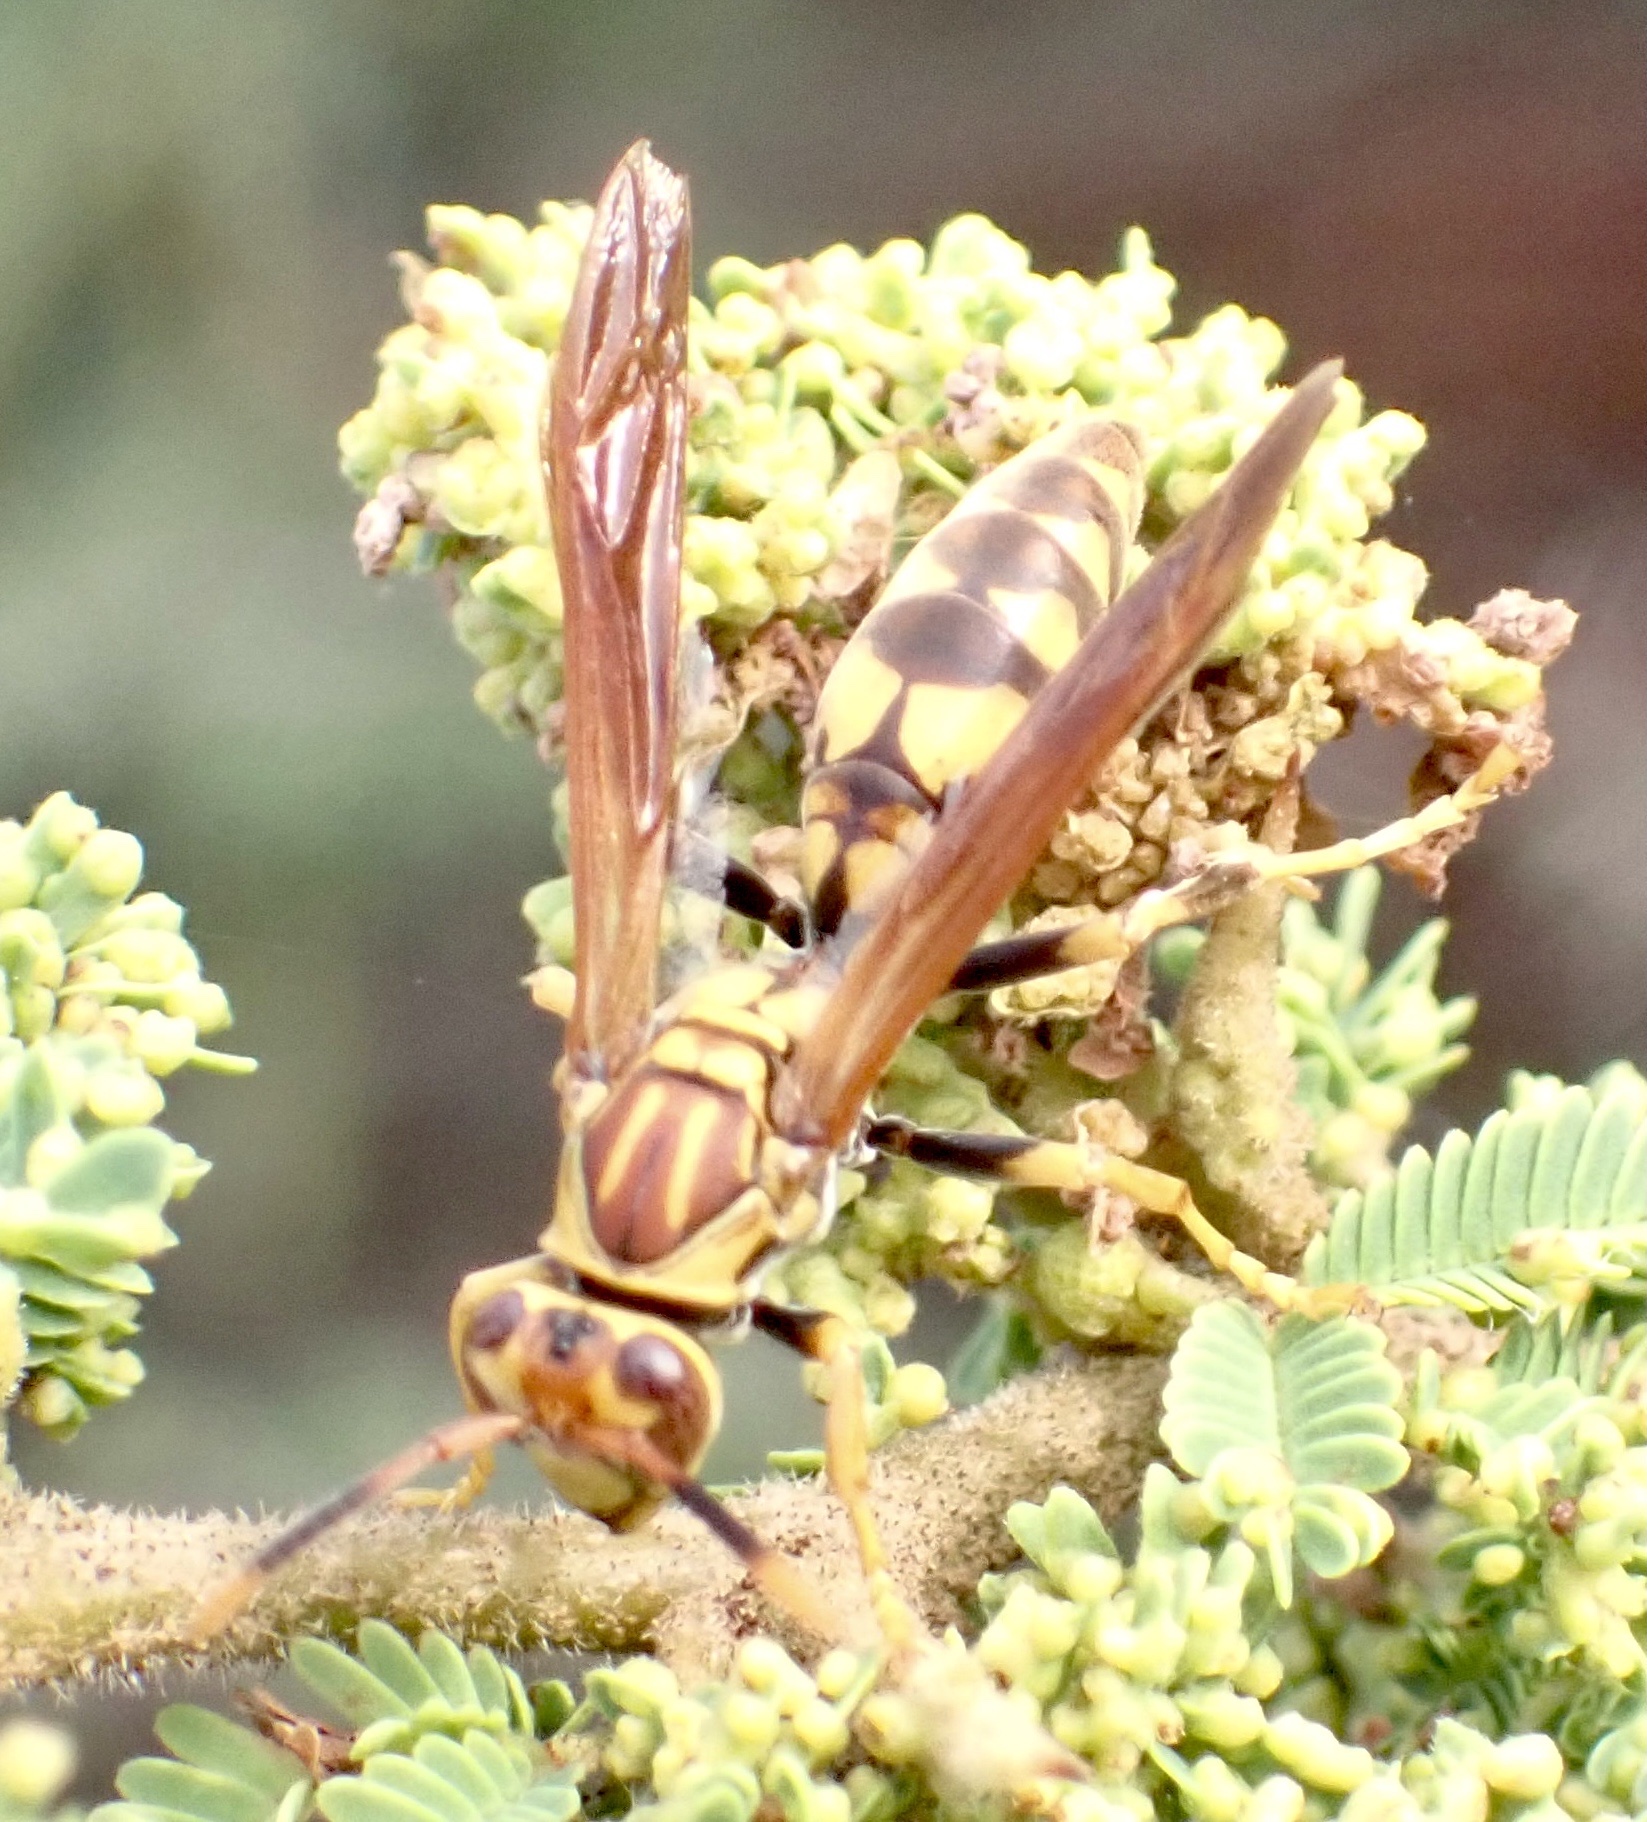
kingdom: Animalia
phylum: Arthropoda
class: Insecta
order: Hymenoptera
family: Eumenidae
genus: Polistes
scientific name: Polistes myersi
